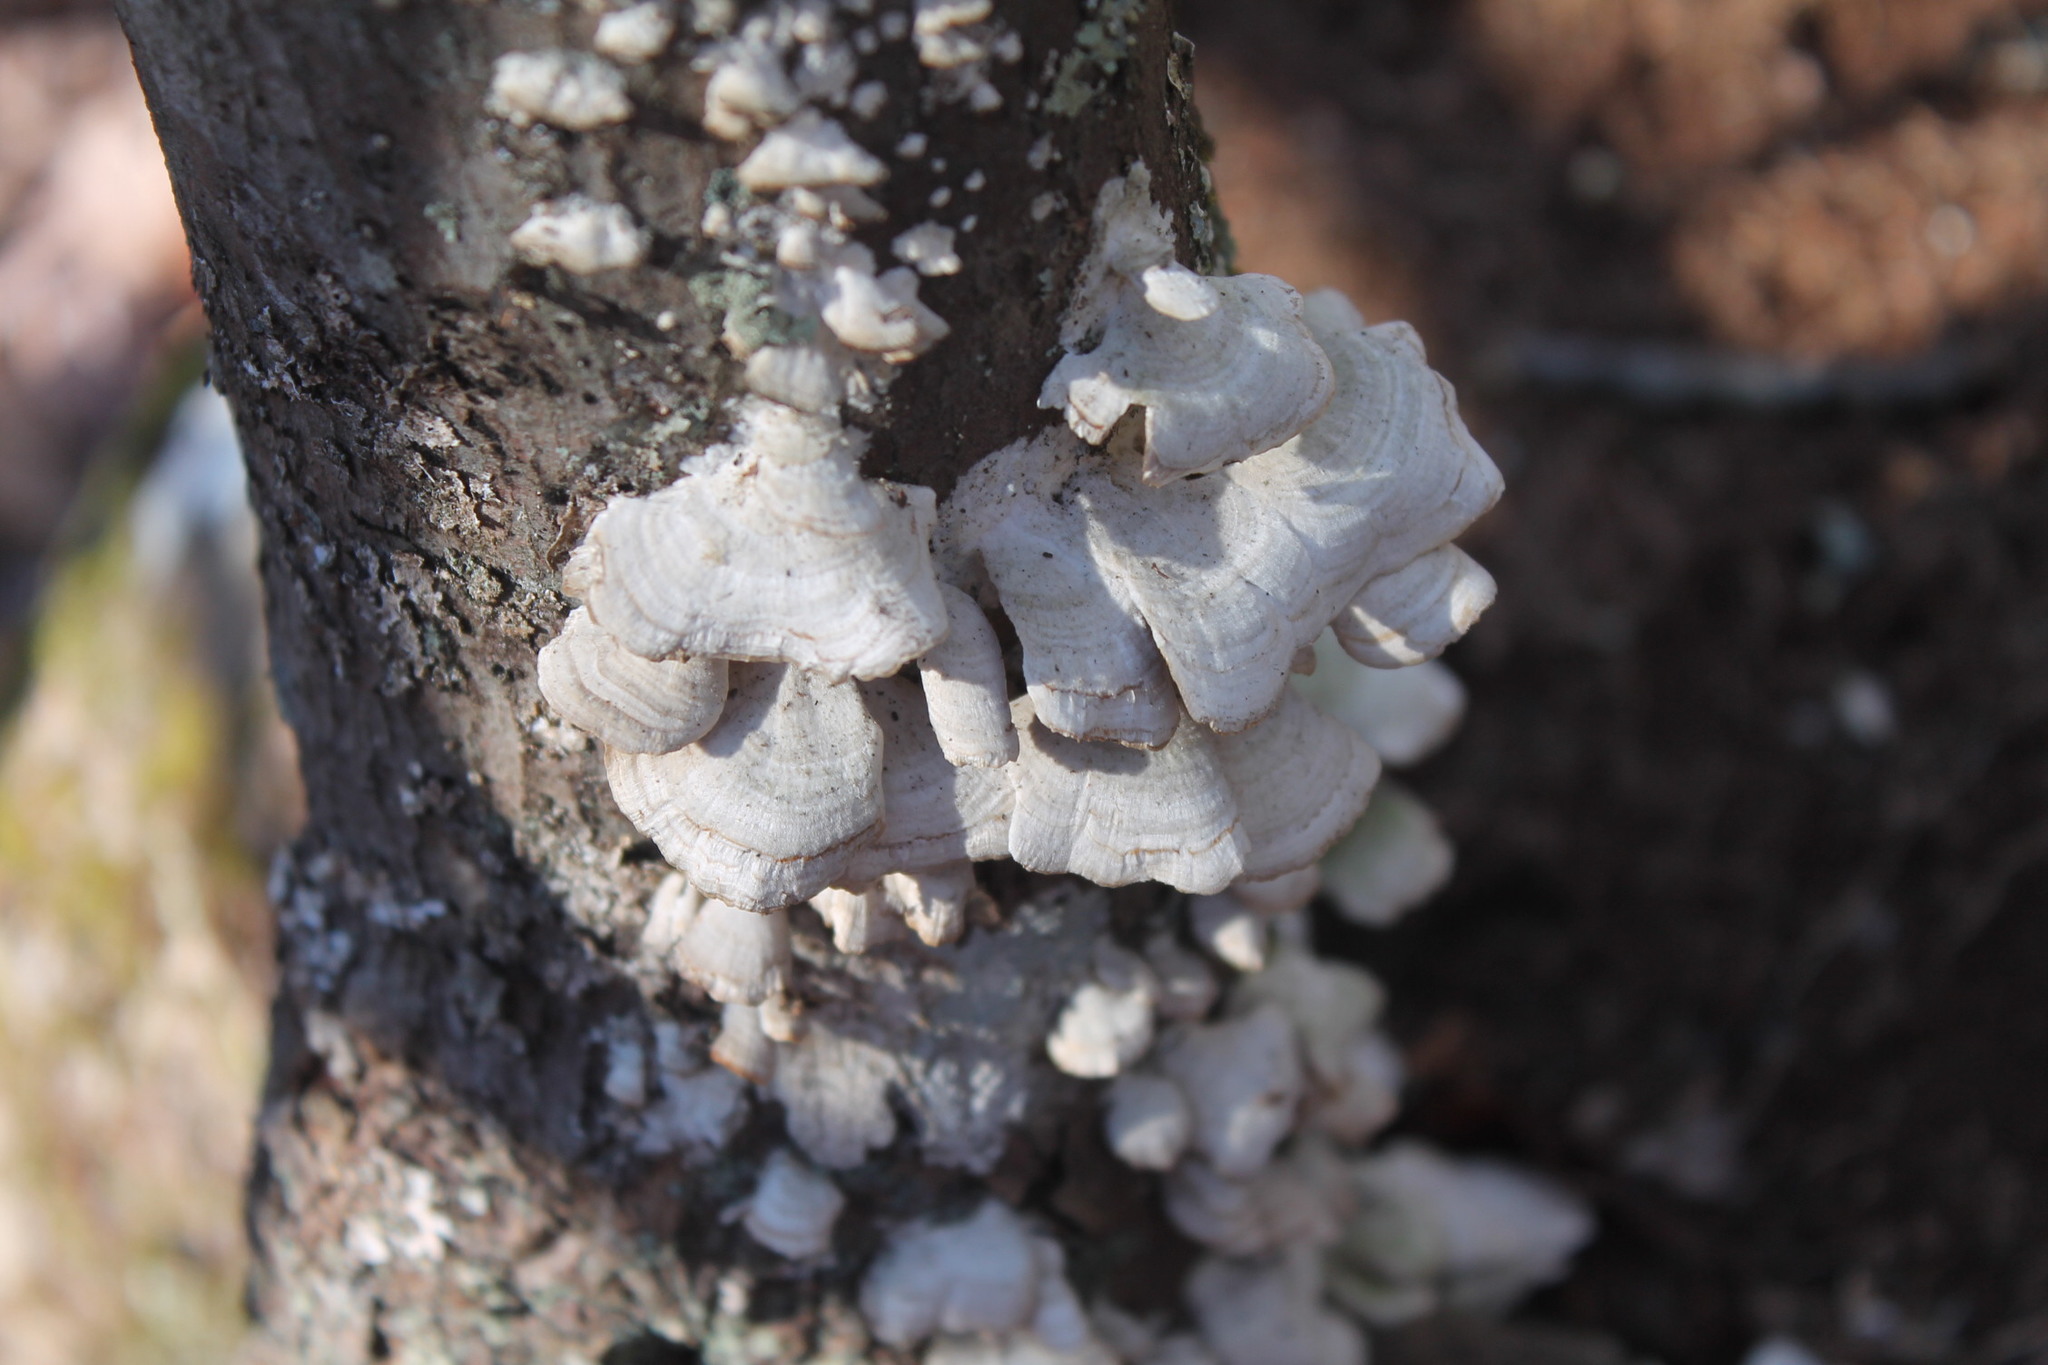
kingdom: Fungi
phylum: Basidiomycota
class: Agaricomycetes
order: Hymenochaetales
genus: Trichaptum
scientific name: Trichaptum biforme
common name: Violet-toothed polypore
